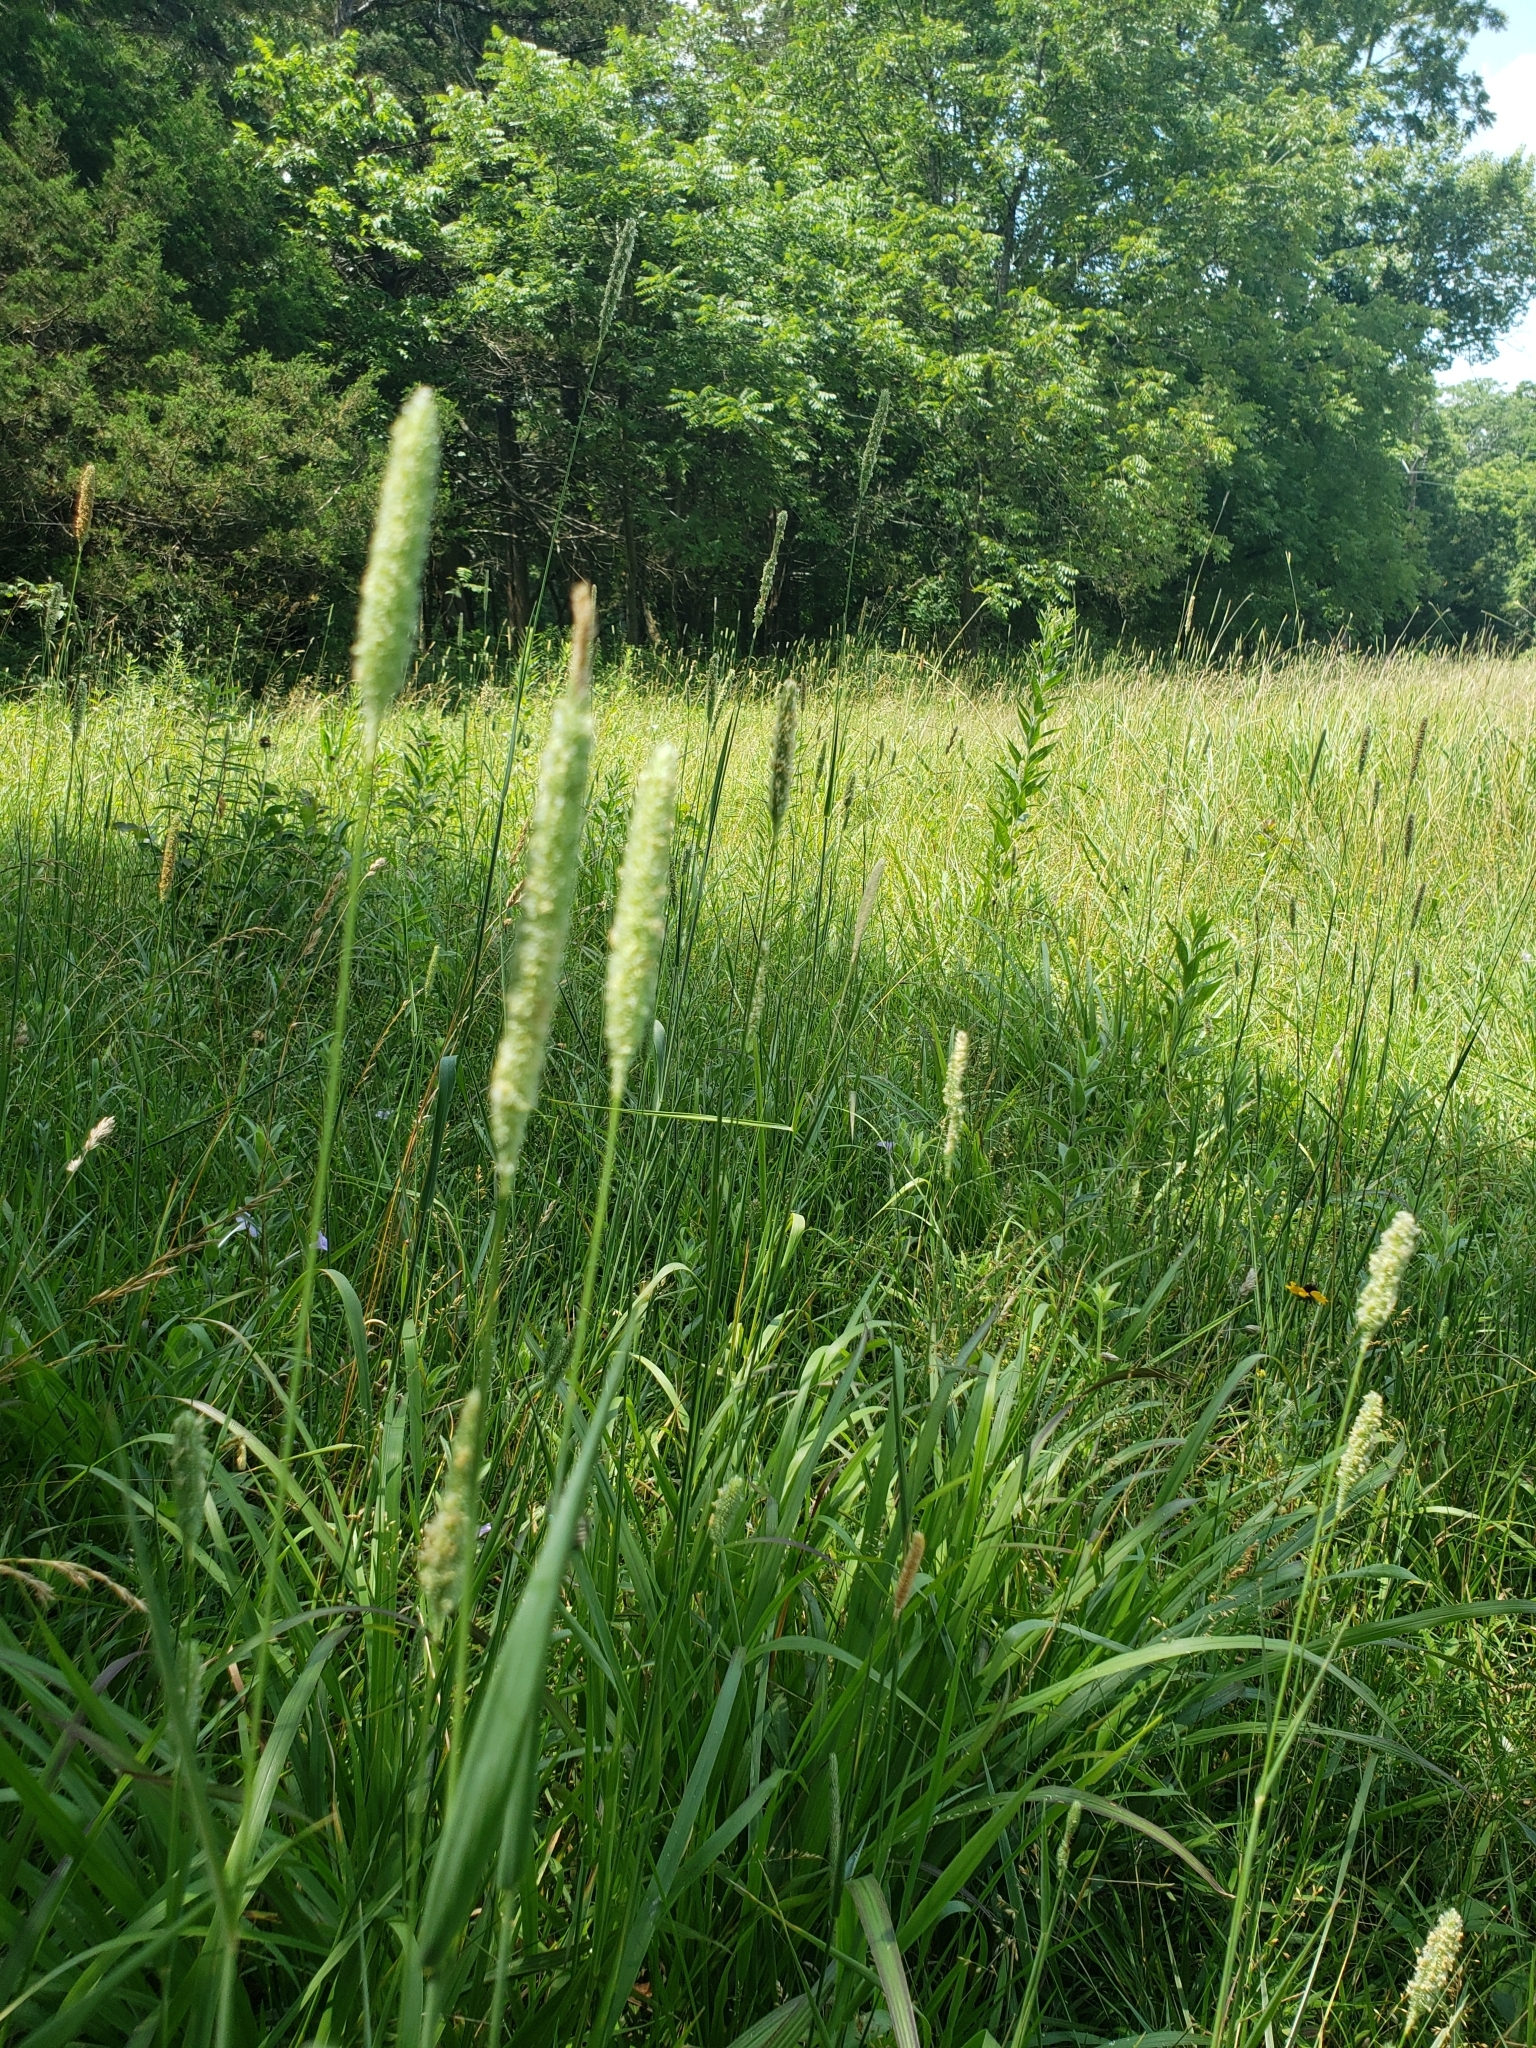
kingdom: Plantae
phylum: Tracheophyta
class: Liliopsida
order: Poales
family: Poaceae
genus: Phleum
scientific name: Phleum pratense
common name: Timothy grass
